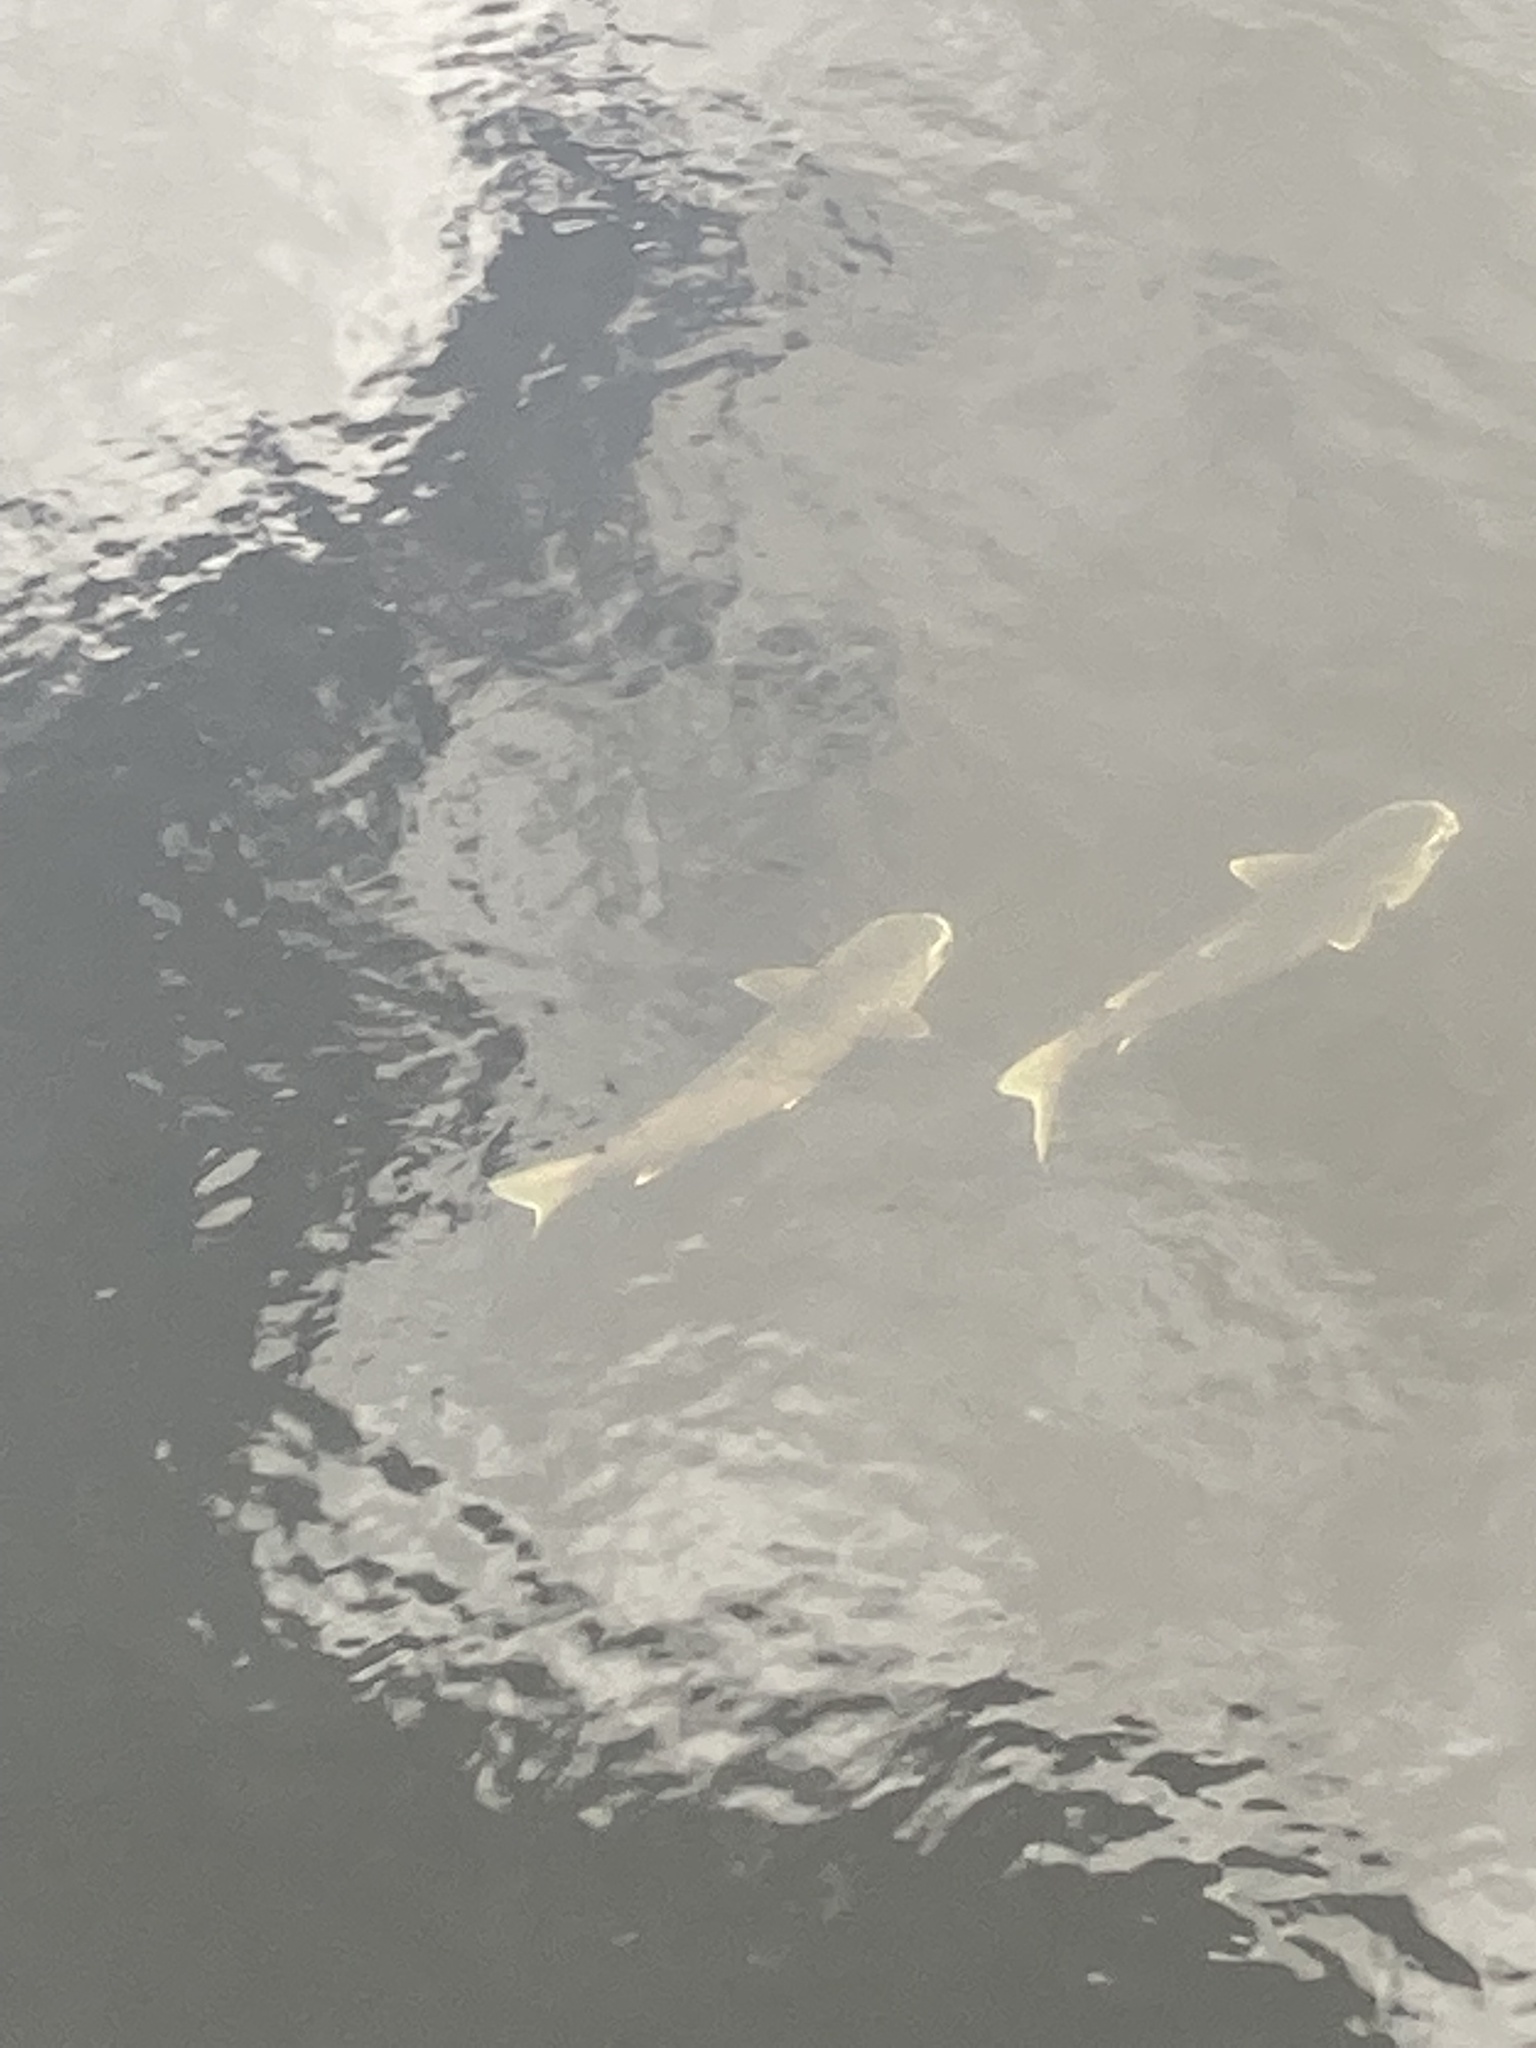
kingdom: Animalia
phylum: Chordata
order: Mugiliformes
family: Mugilidae
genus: Mugil
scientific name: Mugil cephalus
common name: Grey mullet
